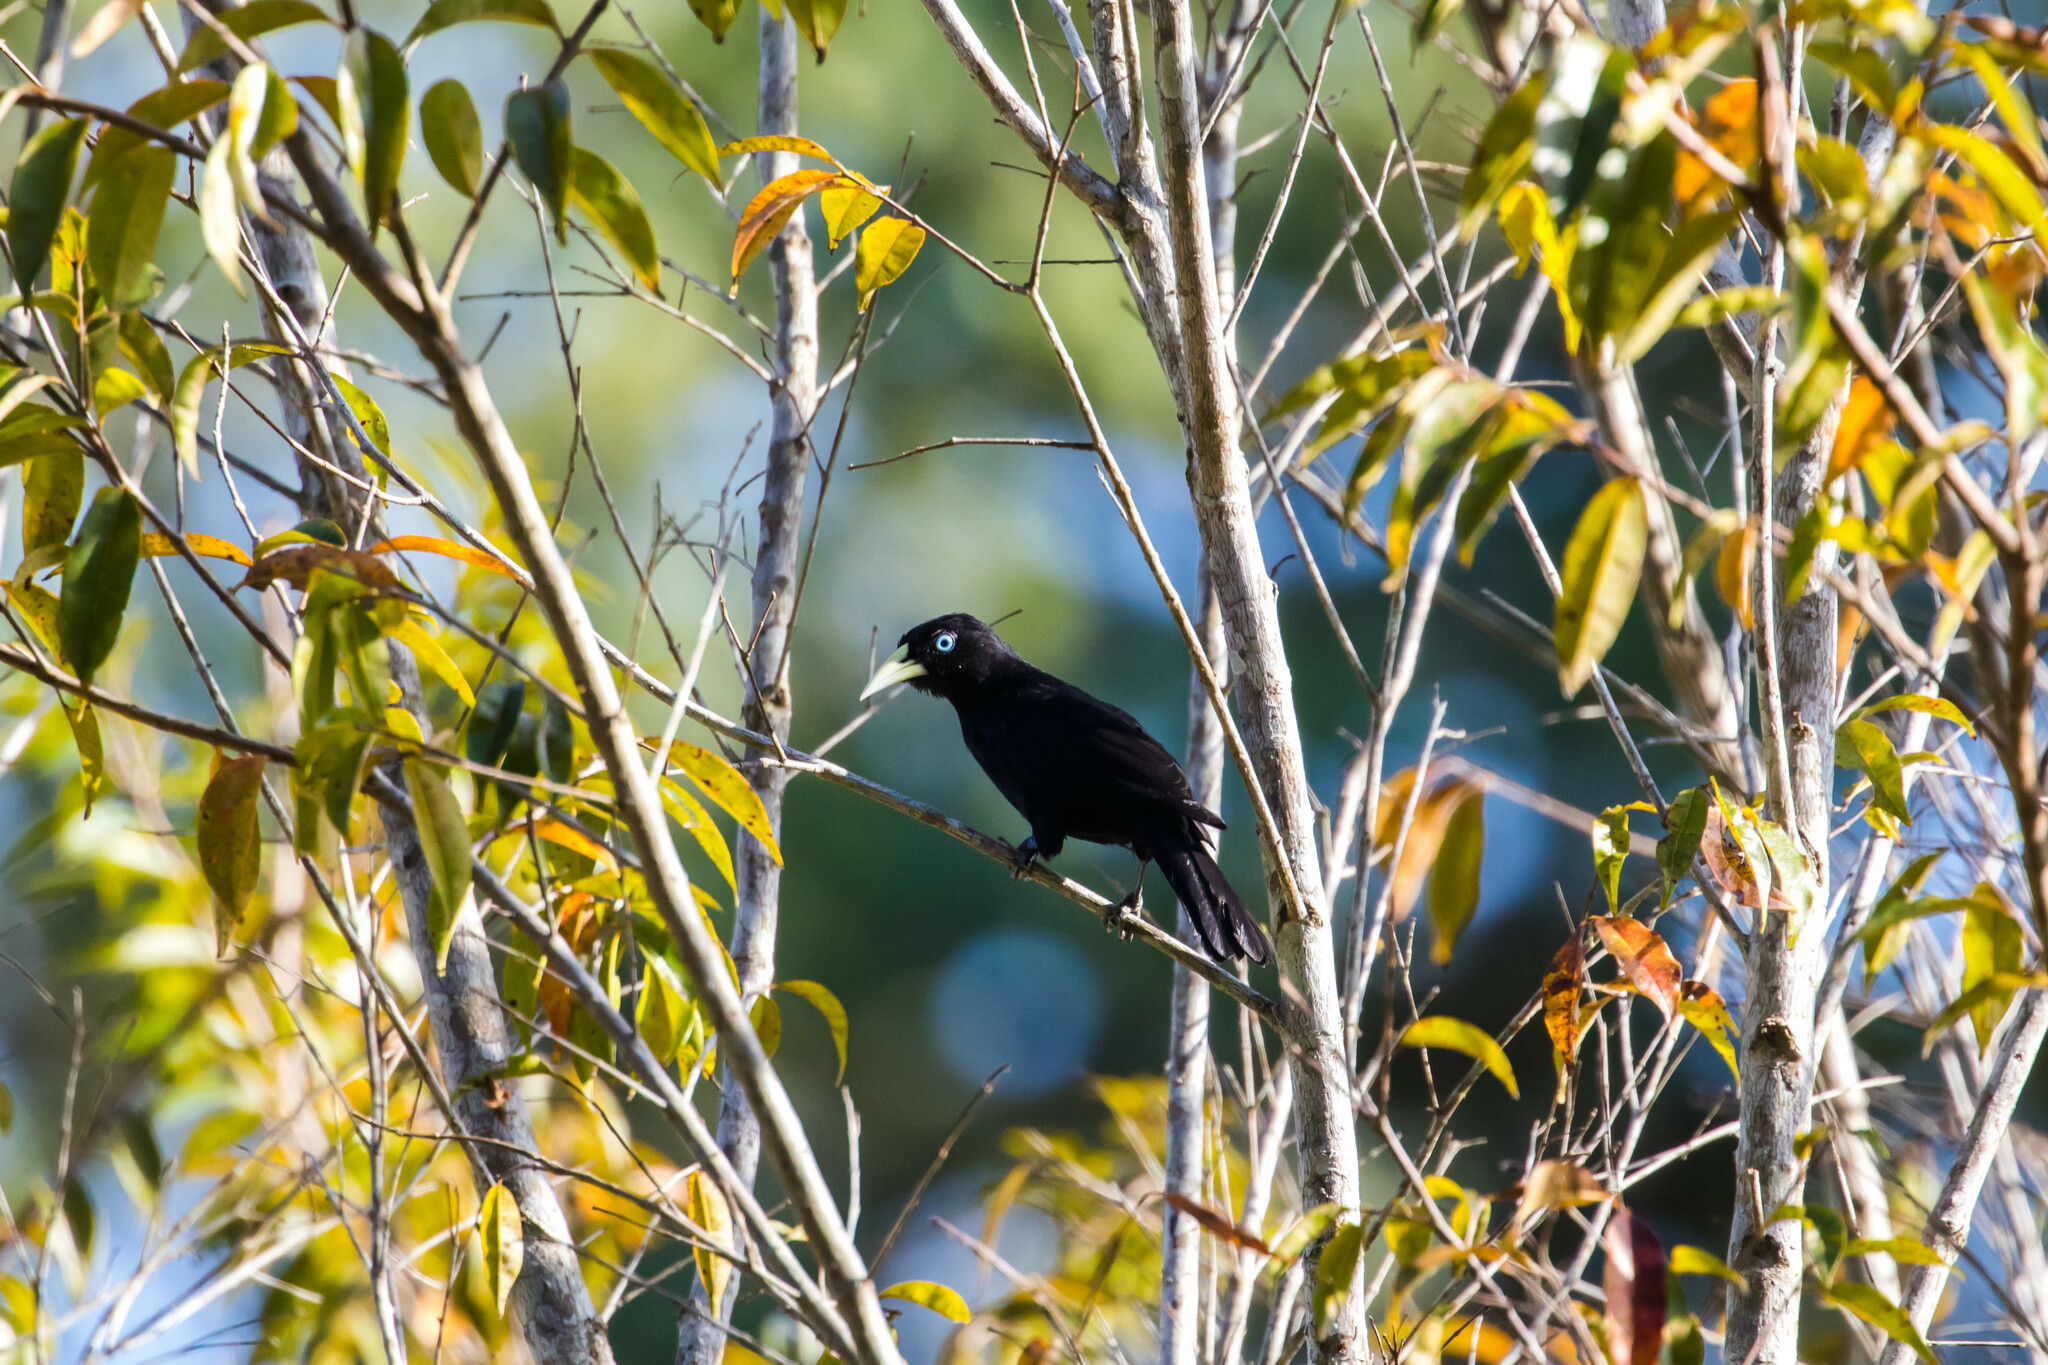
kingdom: Animalia
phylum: Chordata
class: Aves
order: Passeriformes
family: Icteridae
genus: Cacicus
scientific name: Cacicus uropygialis
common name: Scarlet-rumped cacique
